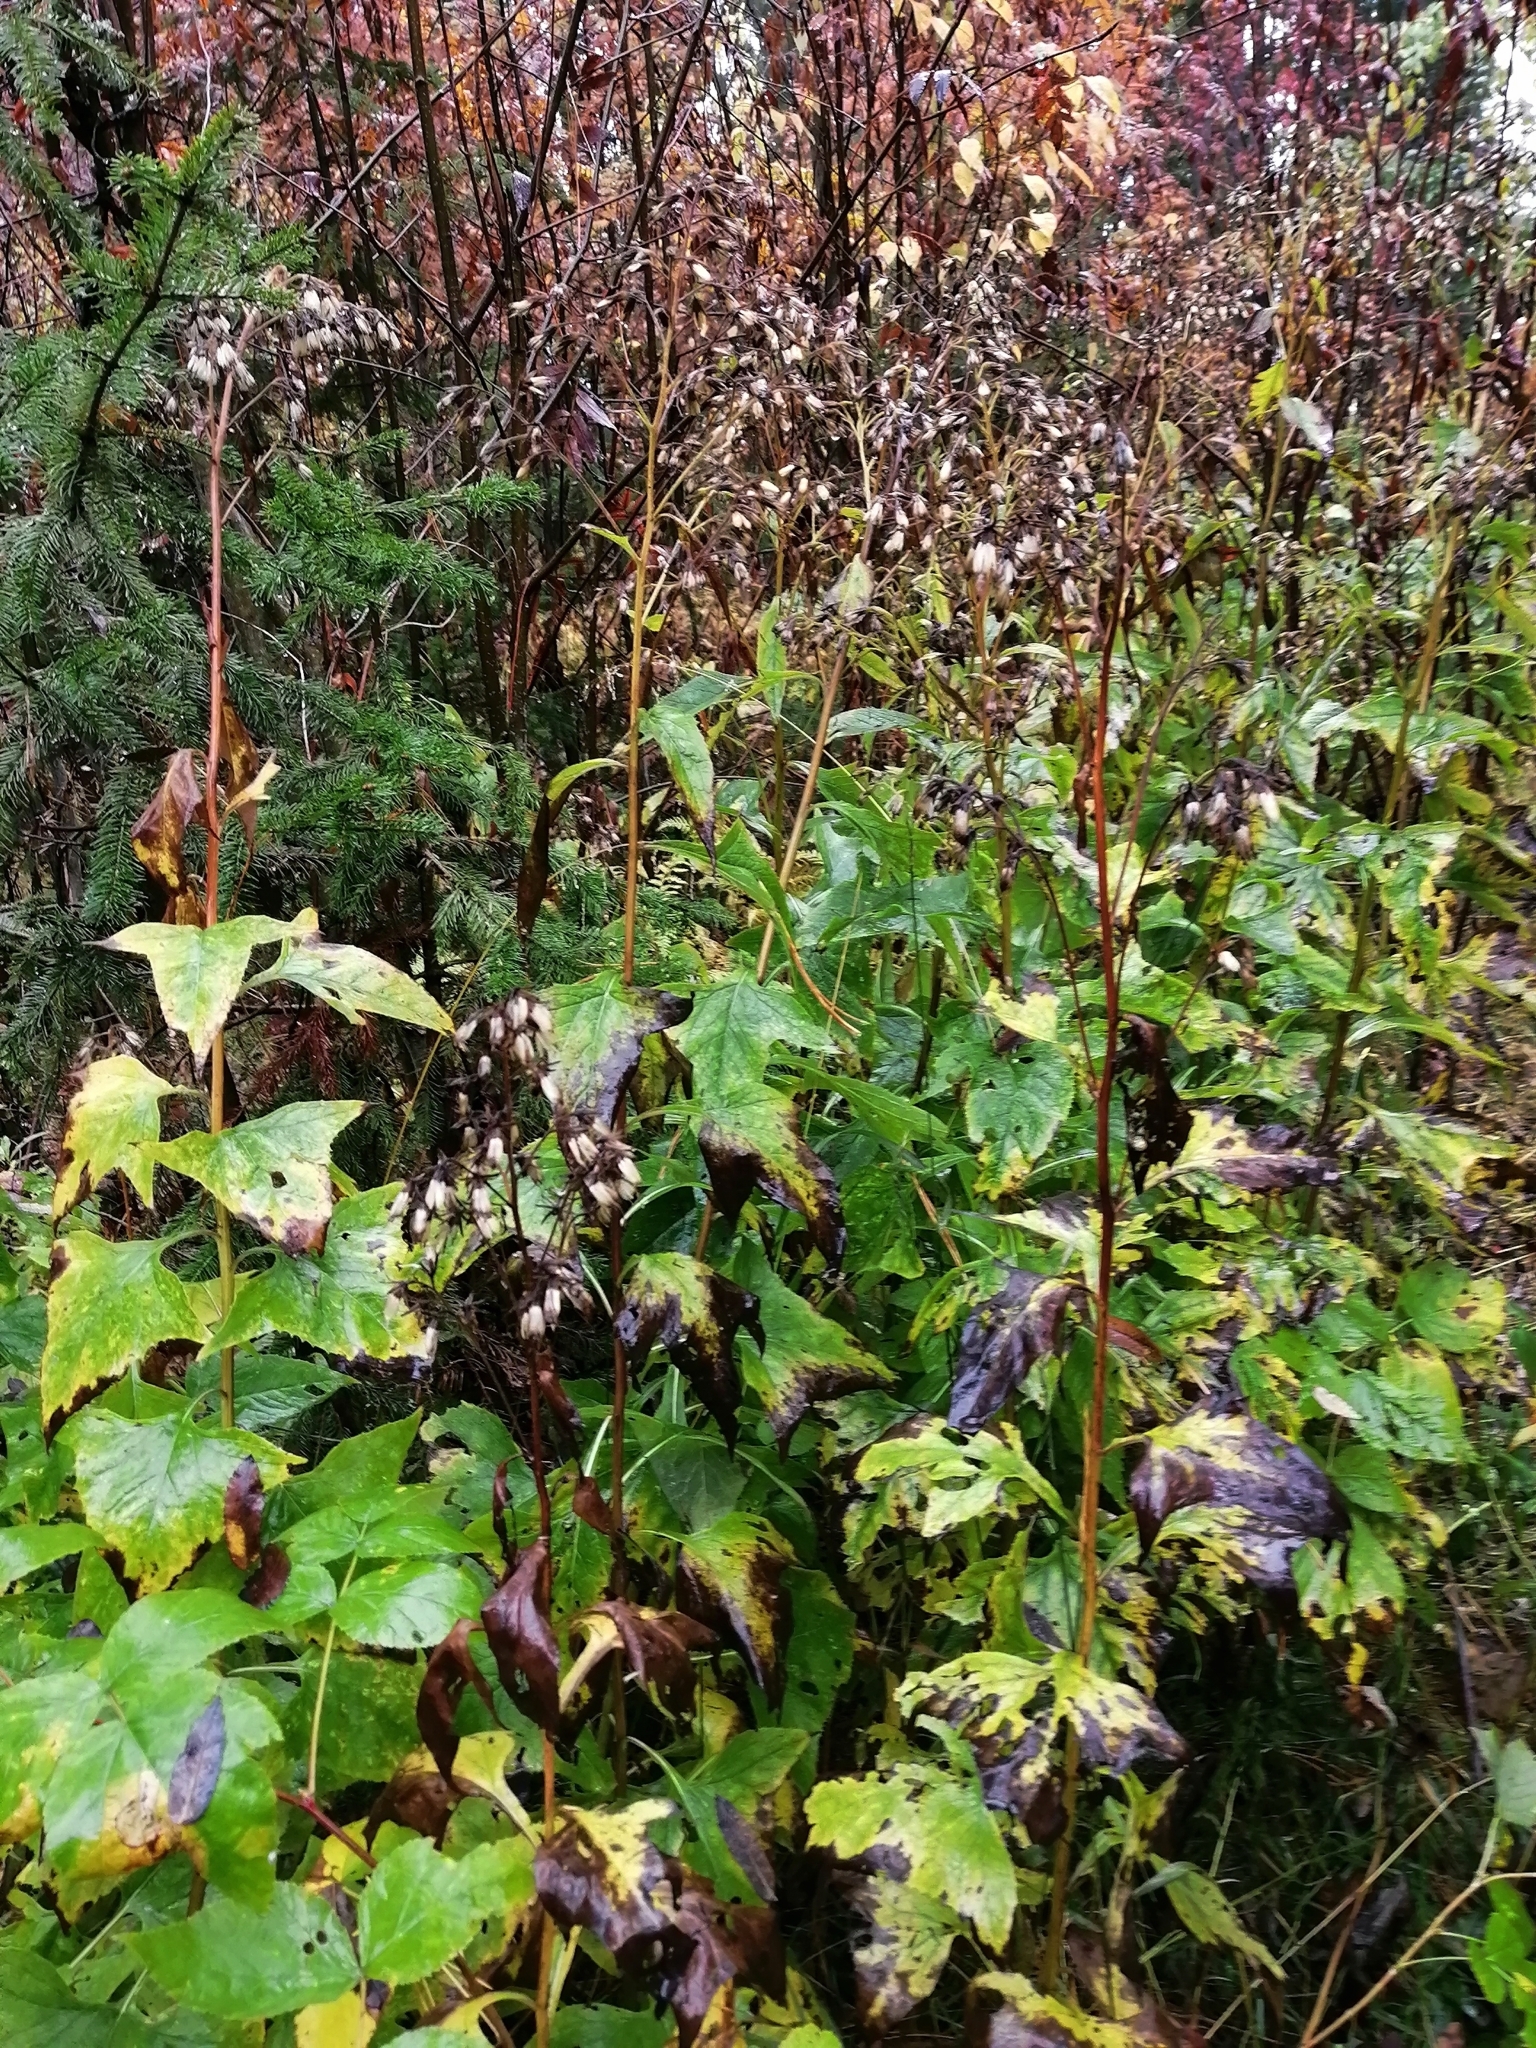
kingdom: Plantae
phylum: Tracheophyta
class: Magnoliopsida
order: Asterales
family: Asteraceae
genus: Parasenecio
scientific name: Parasenecio hastatus
